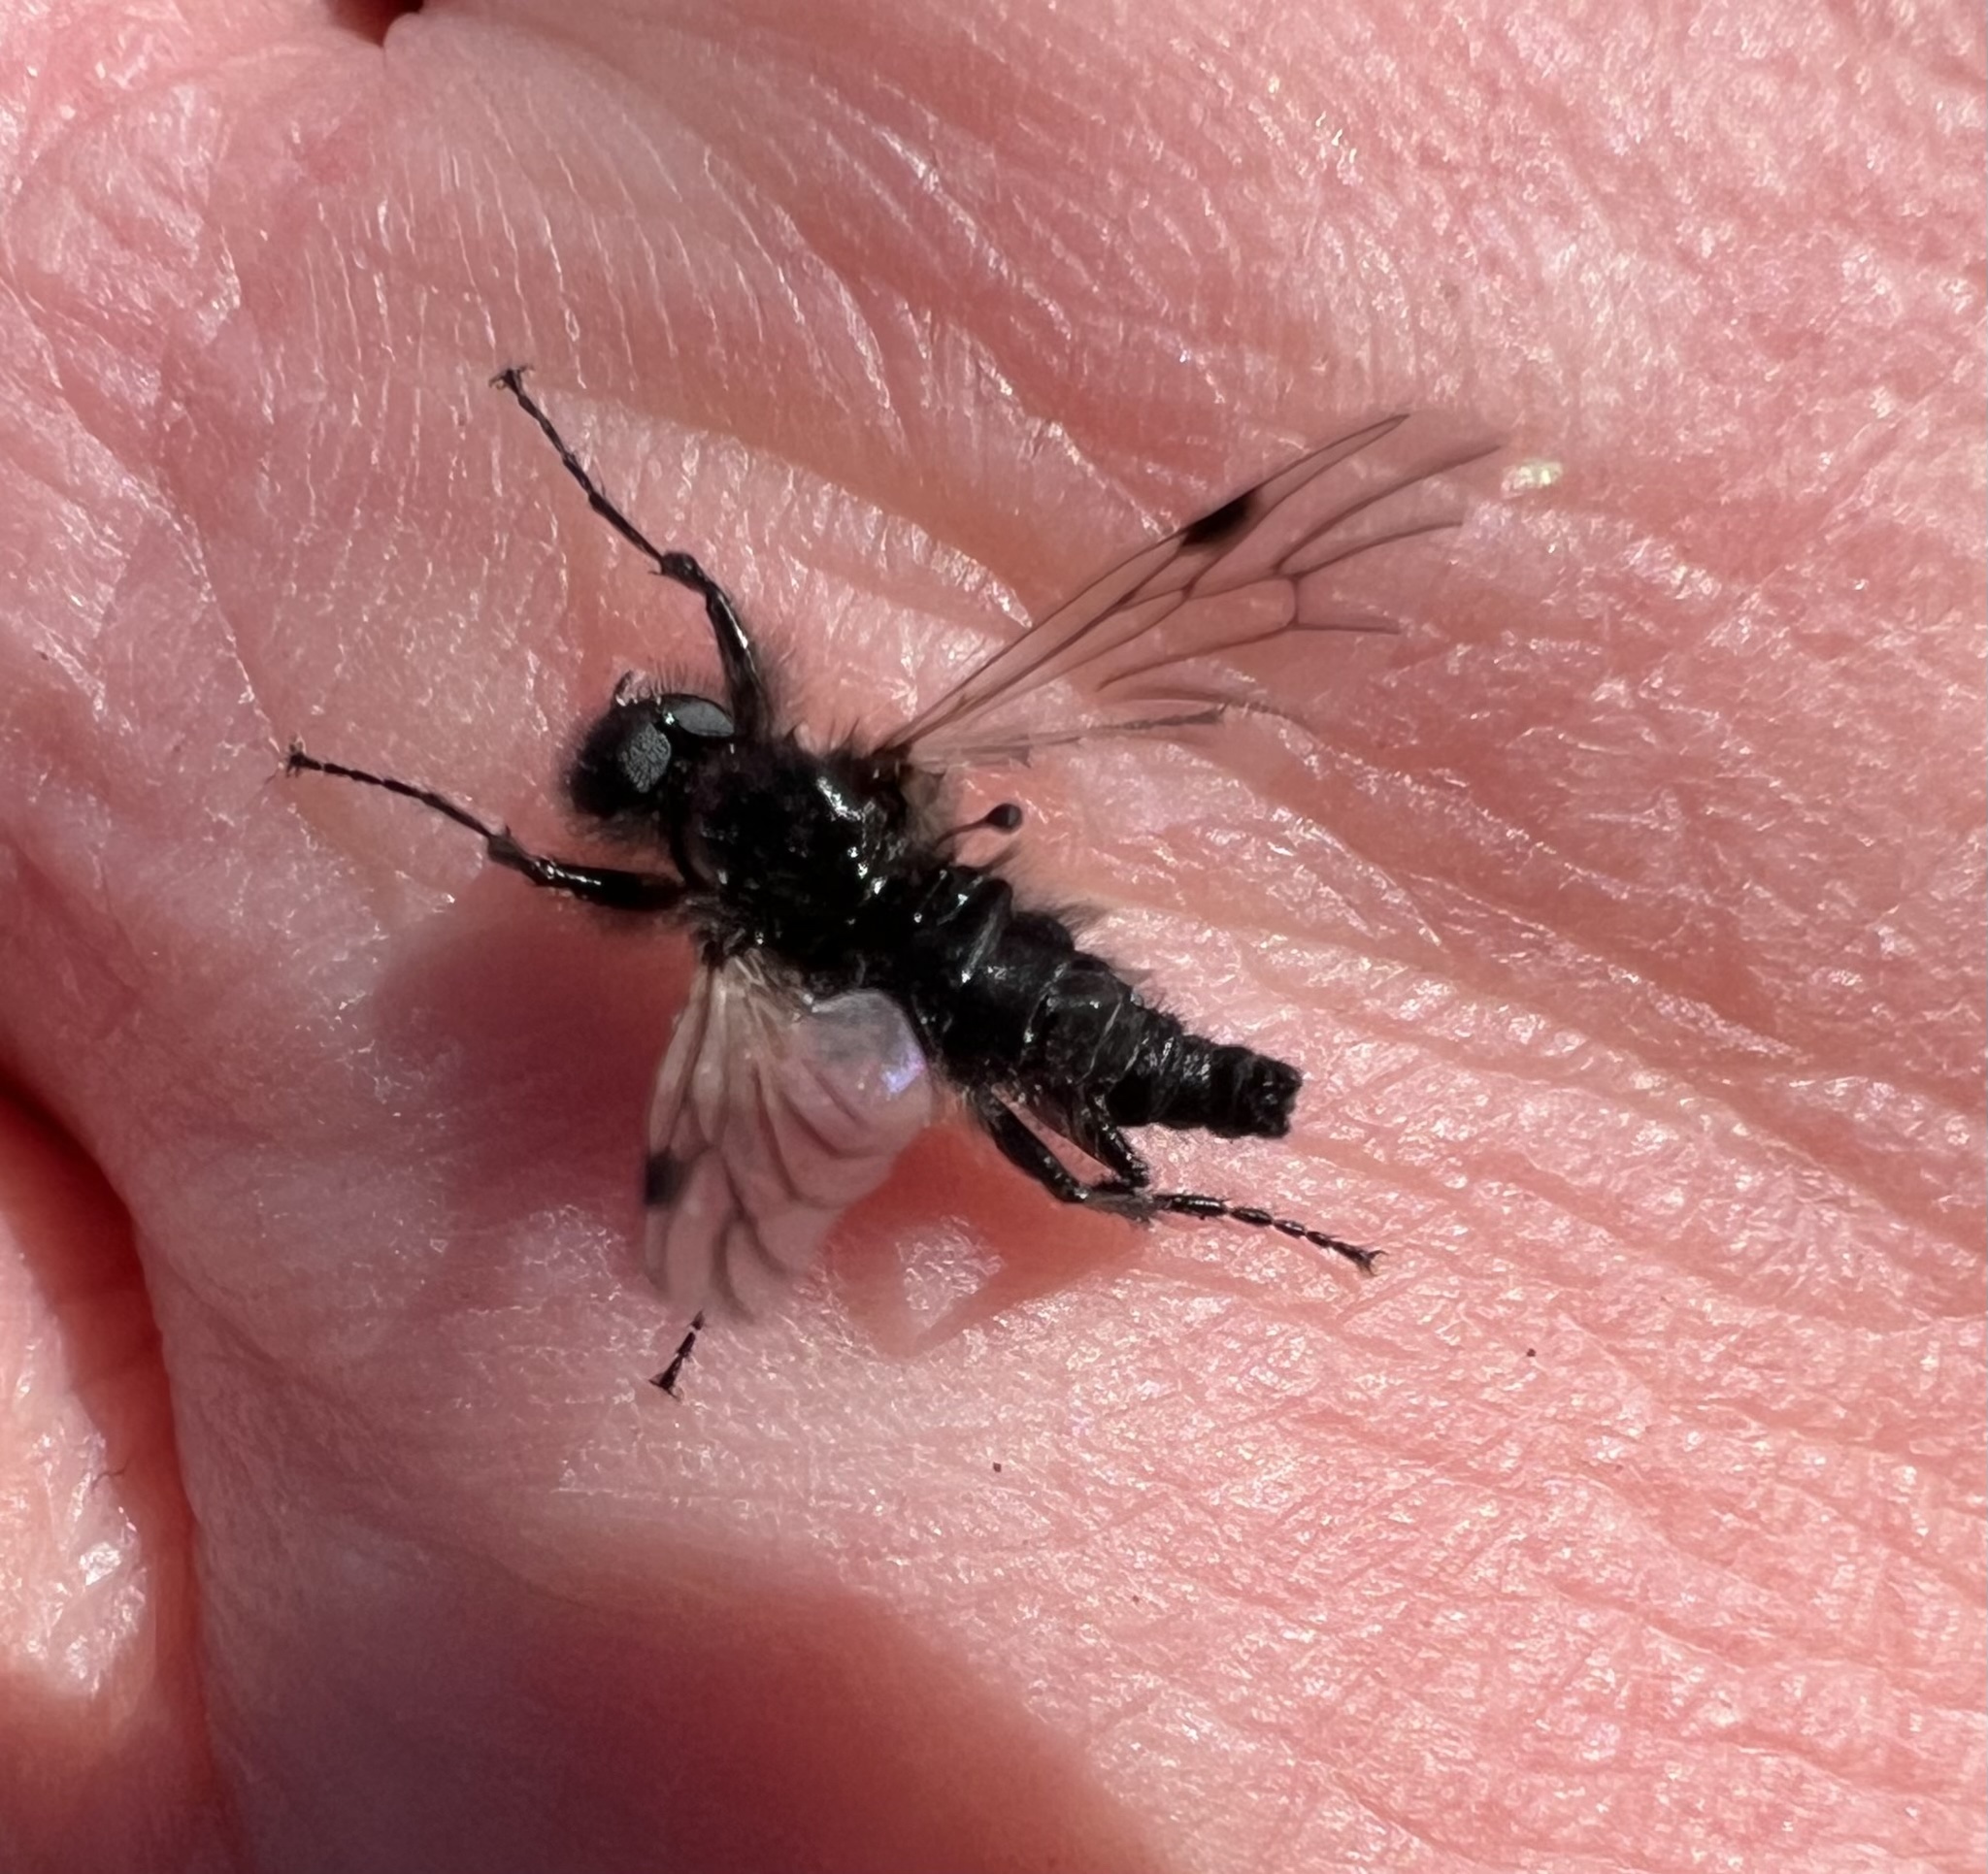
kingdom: Animalia
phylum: Arthropoda
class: Insecta
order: Diptera
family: Bibionidae
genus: Bibio
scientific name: Bibio albipennis
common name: White-winged march fly
